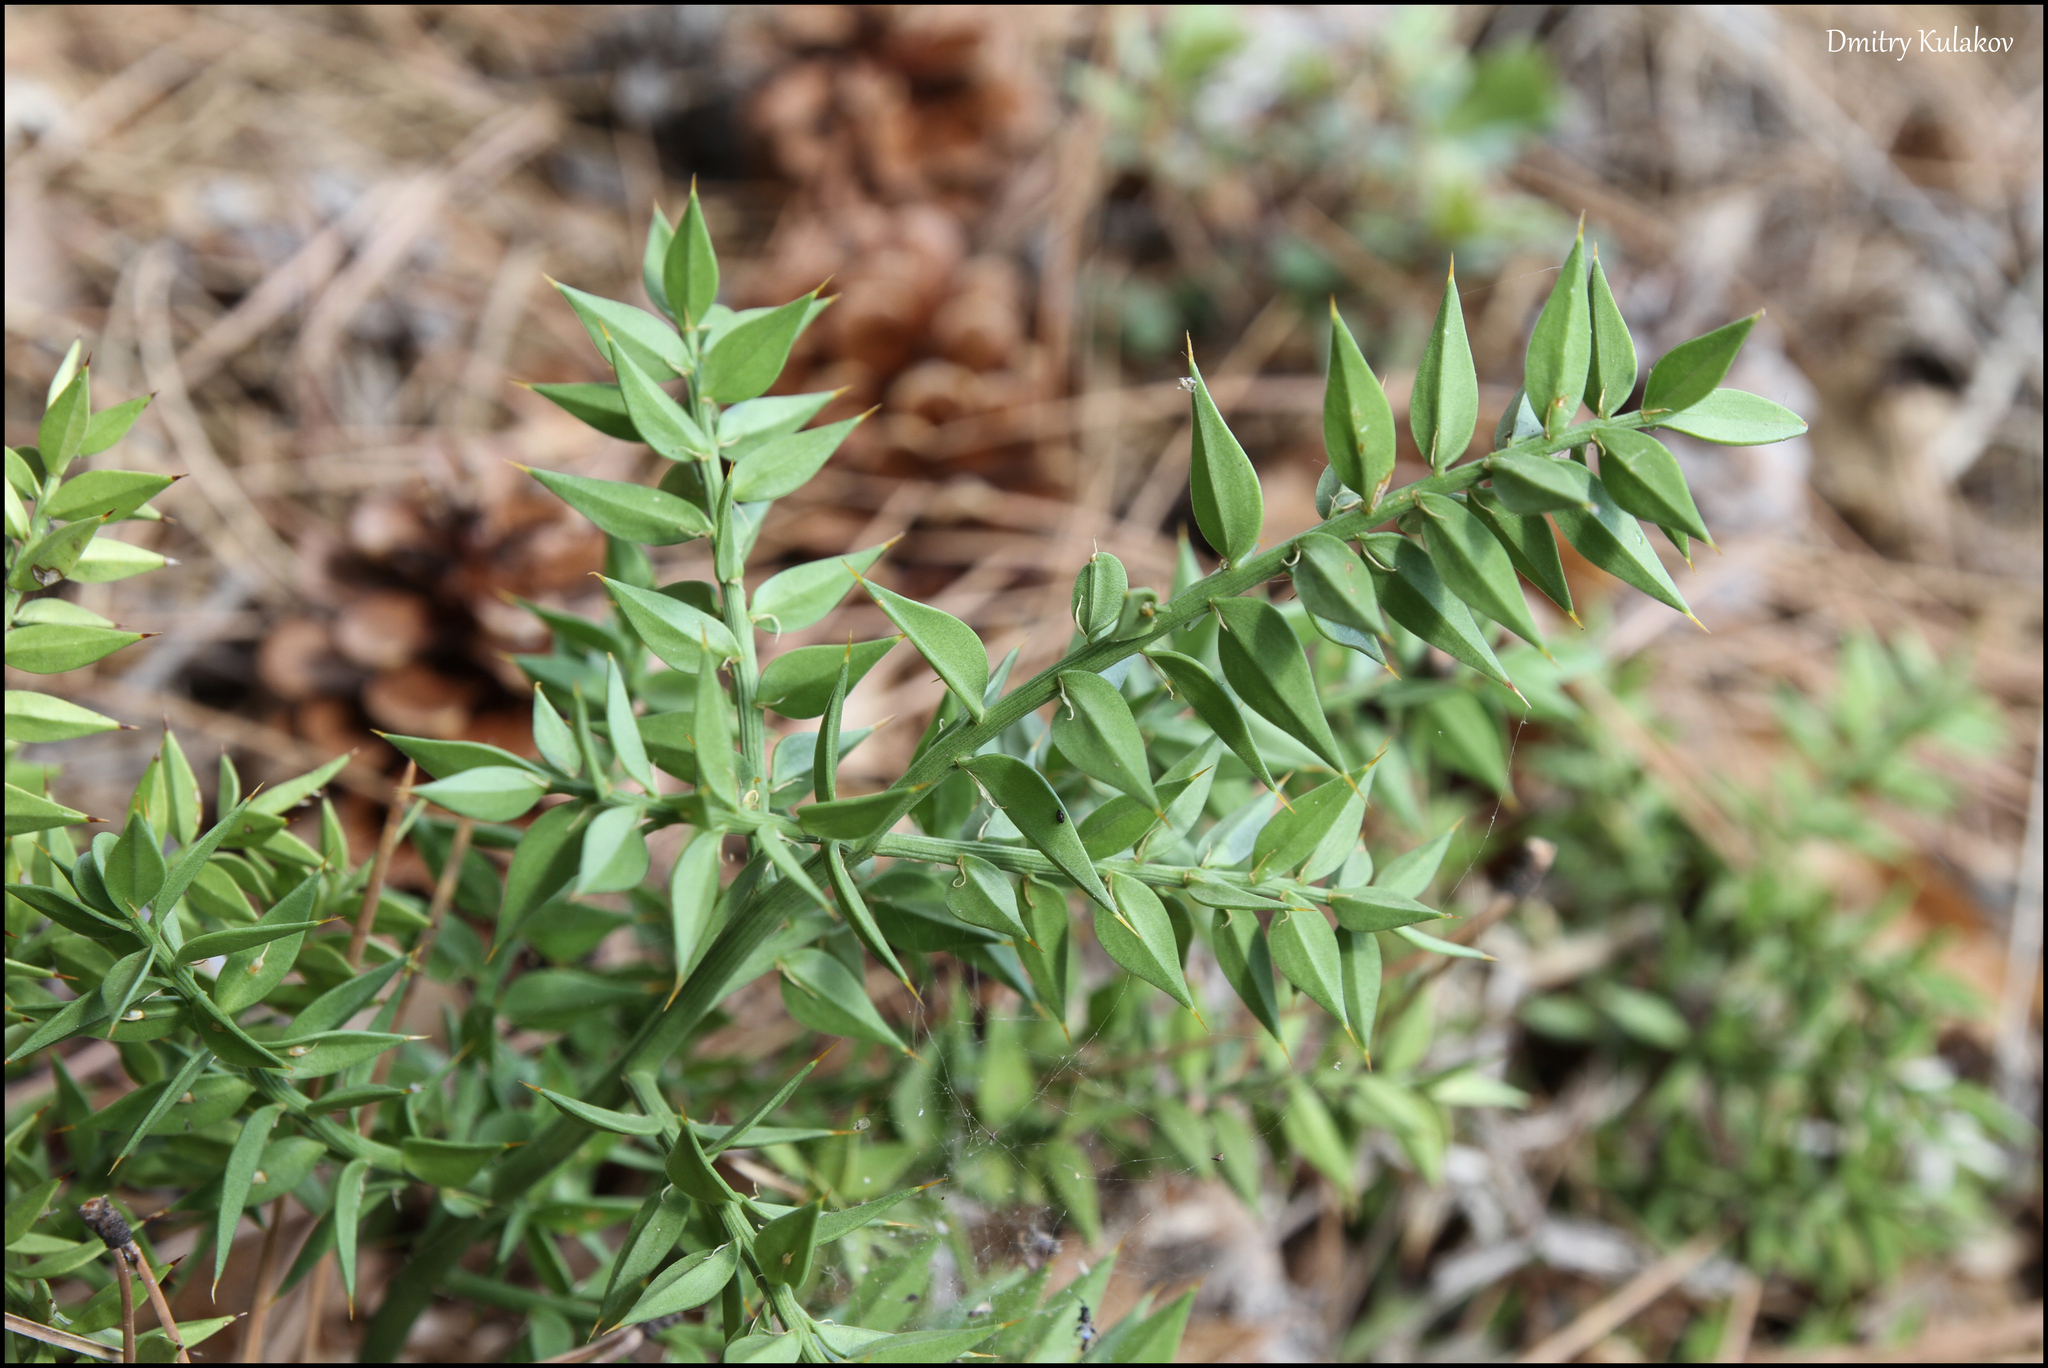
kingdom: Plantae
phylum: Tracheophyta
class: Liliopsida
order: Asparagales
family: Asparagaceae
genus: Ruscus
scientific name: Ruscus aculeatus
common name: Butcher's-broom
